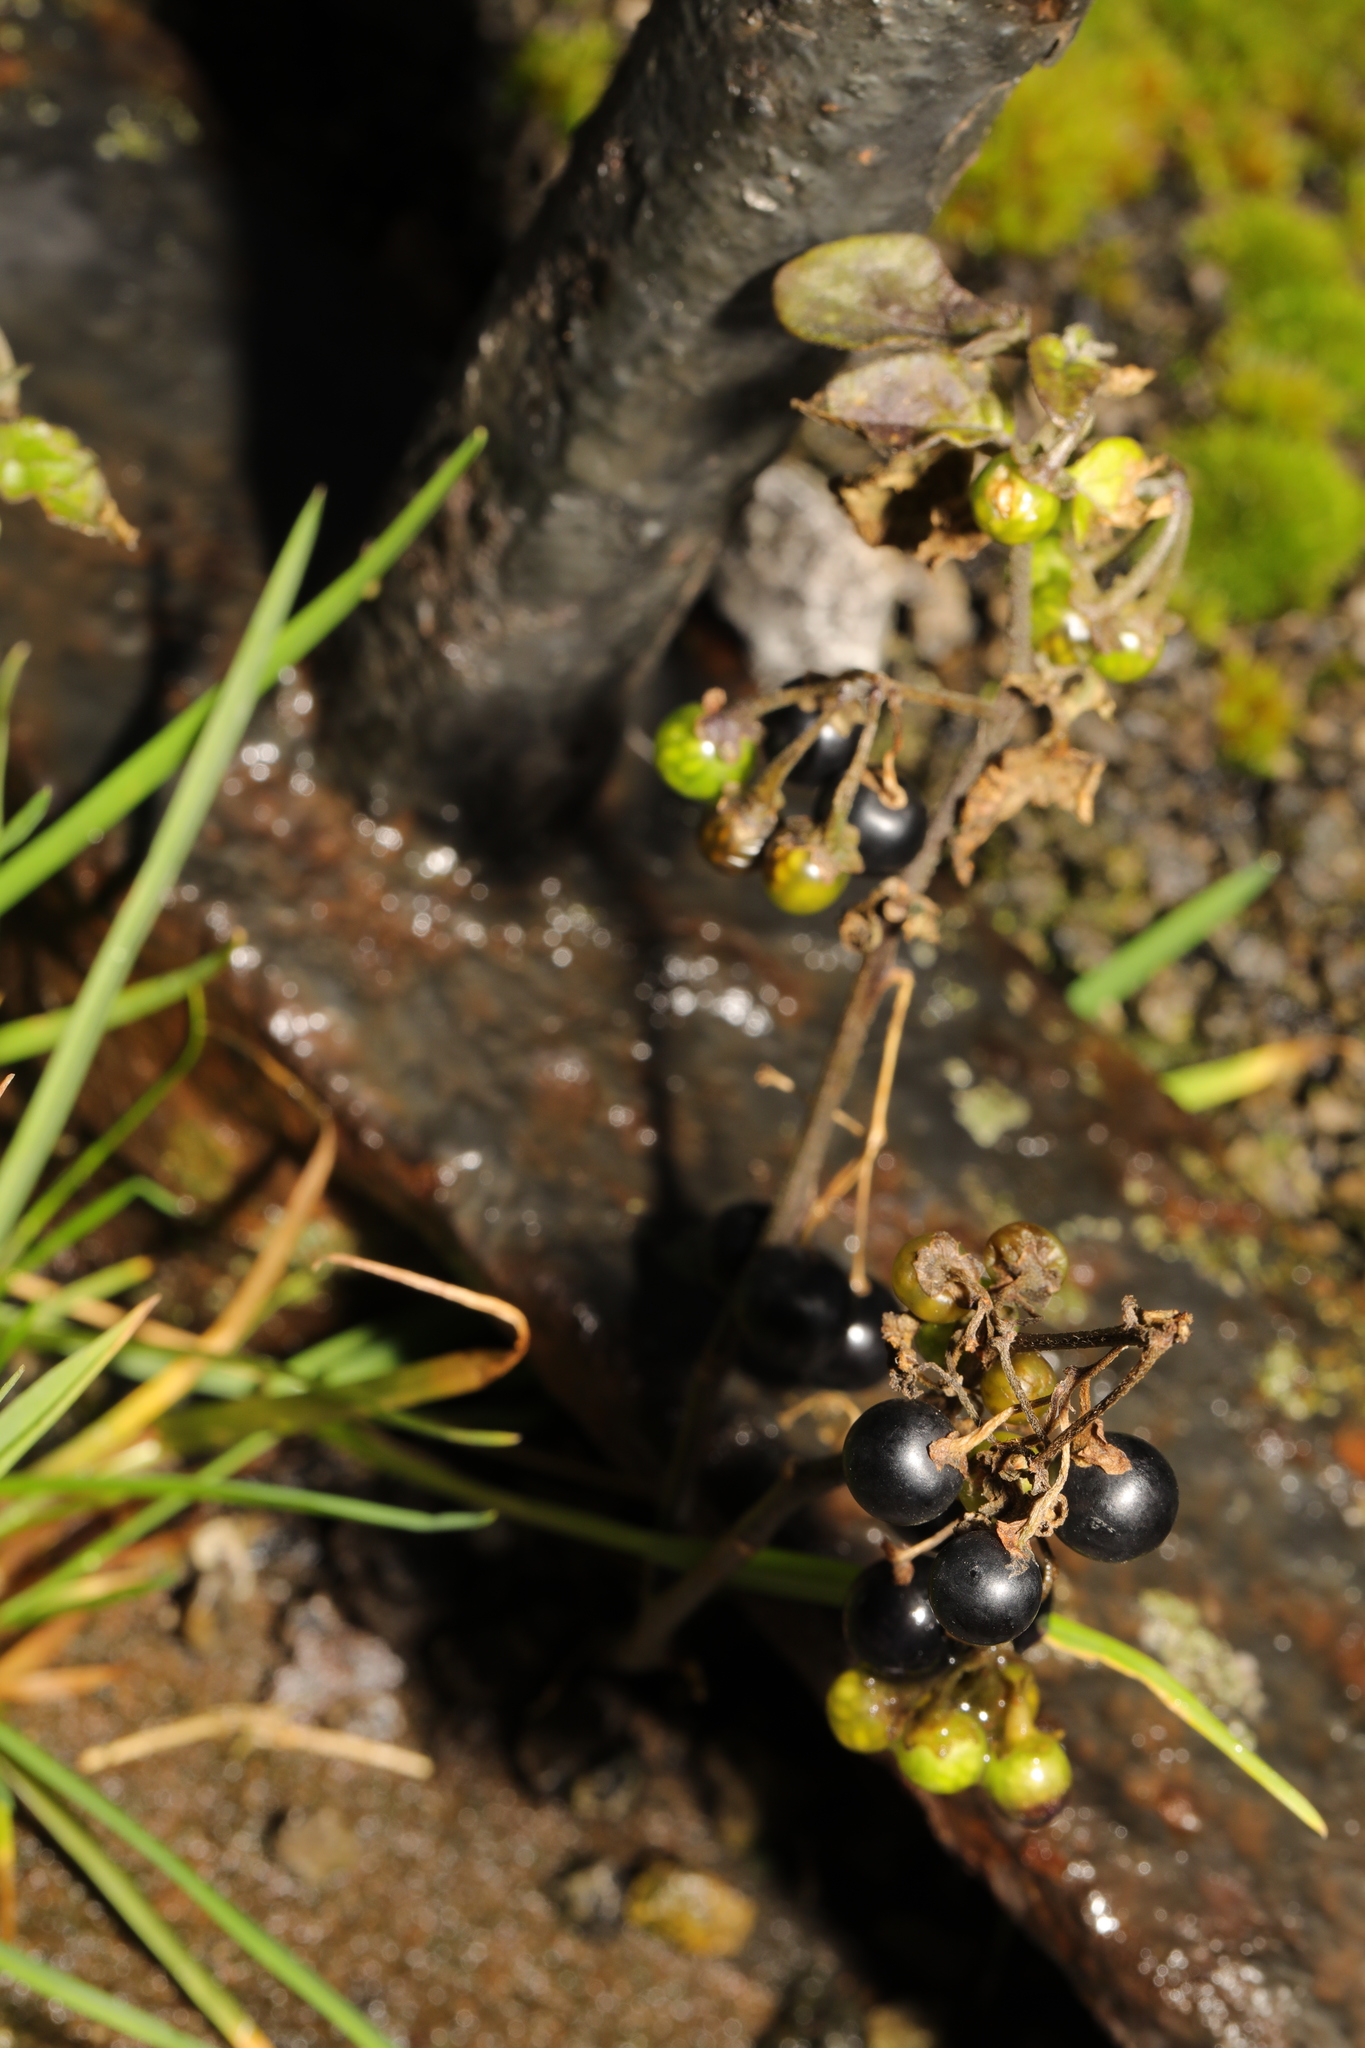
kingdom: Plantae
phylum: Tracheophyta
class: Magnoliopsida
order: Solanales
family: Solanaceae
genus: Solanum
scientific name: Solanum nigrum
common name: Black nightshade
